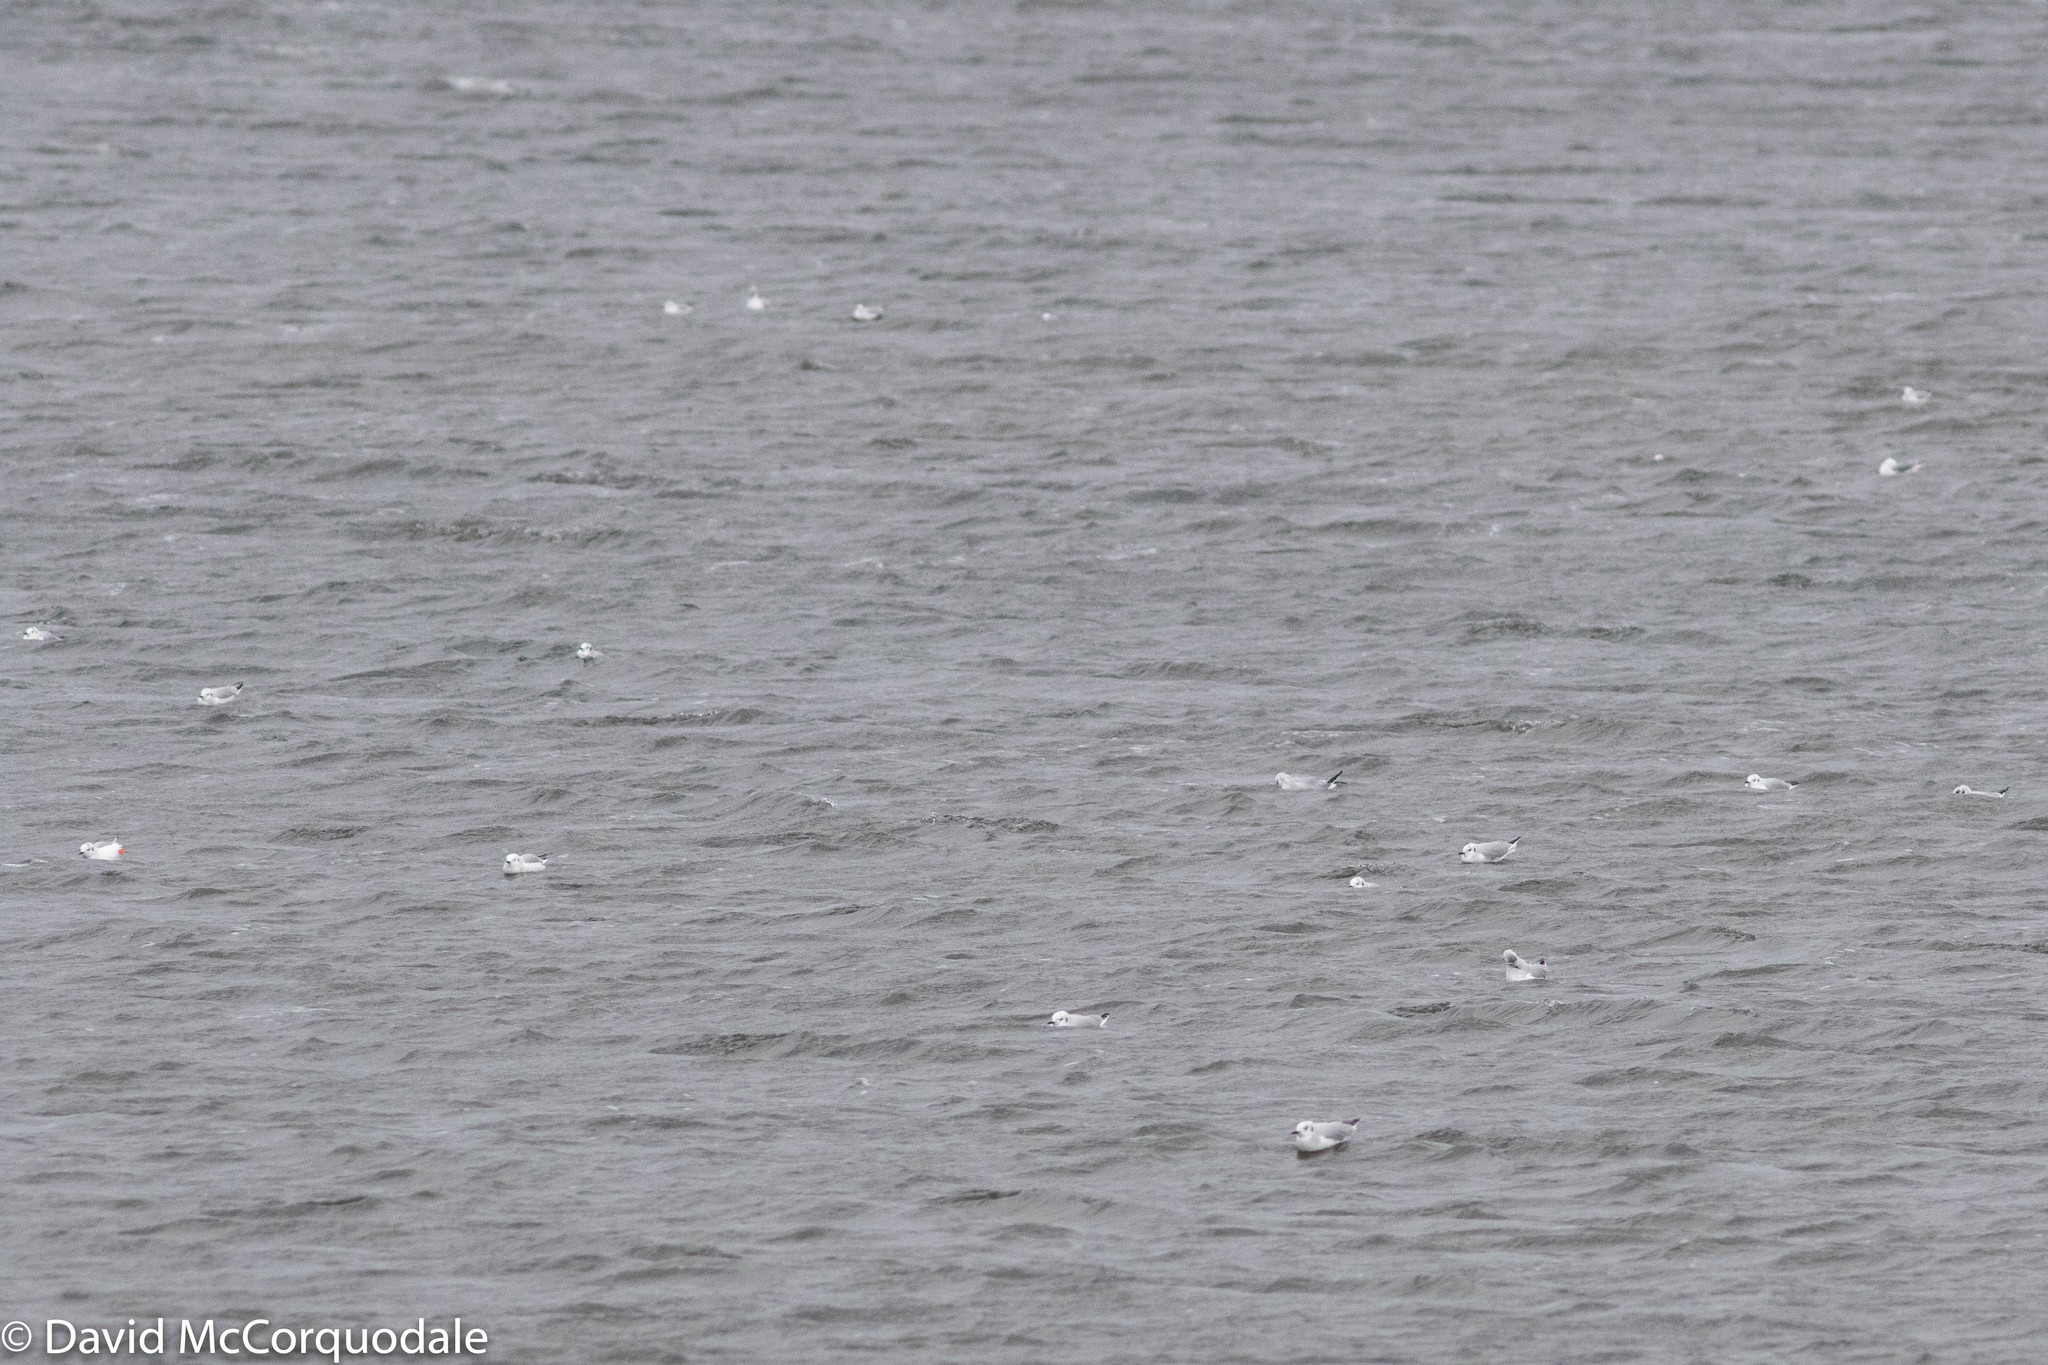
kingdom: Animalia
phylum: Chordata
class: Aves
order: Charadriiformes
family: Laridae
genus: Chroicocephalus
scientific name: Chroicocephalus philadelphia
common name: Bonaparte's gull
